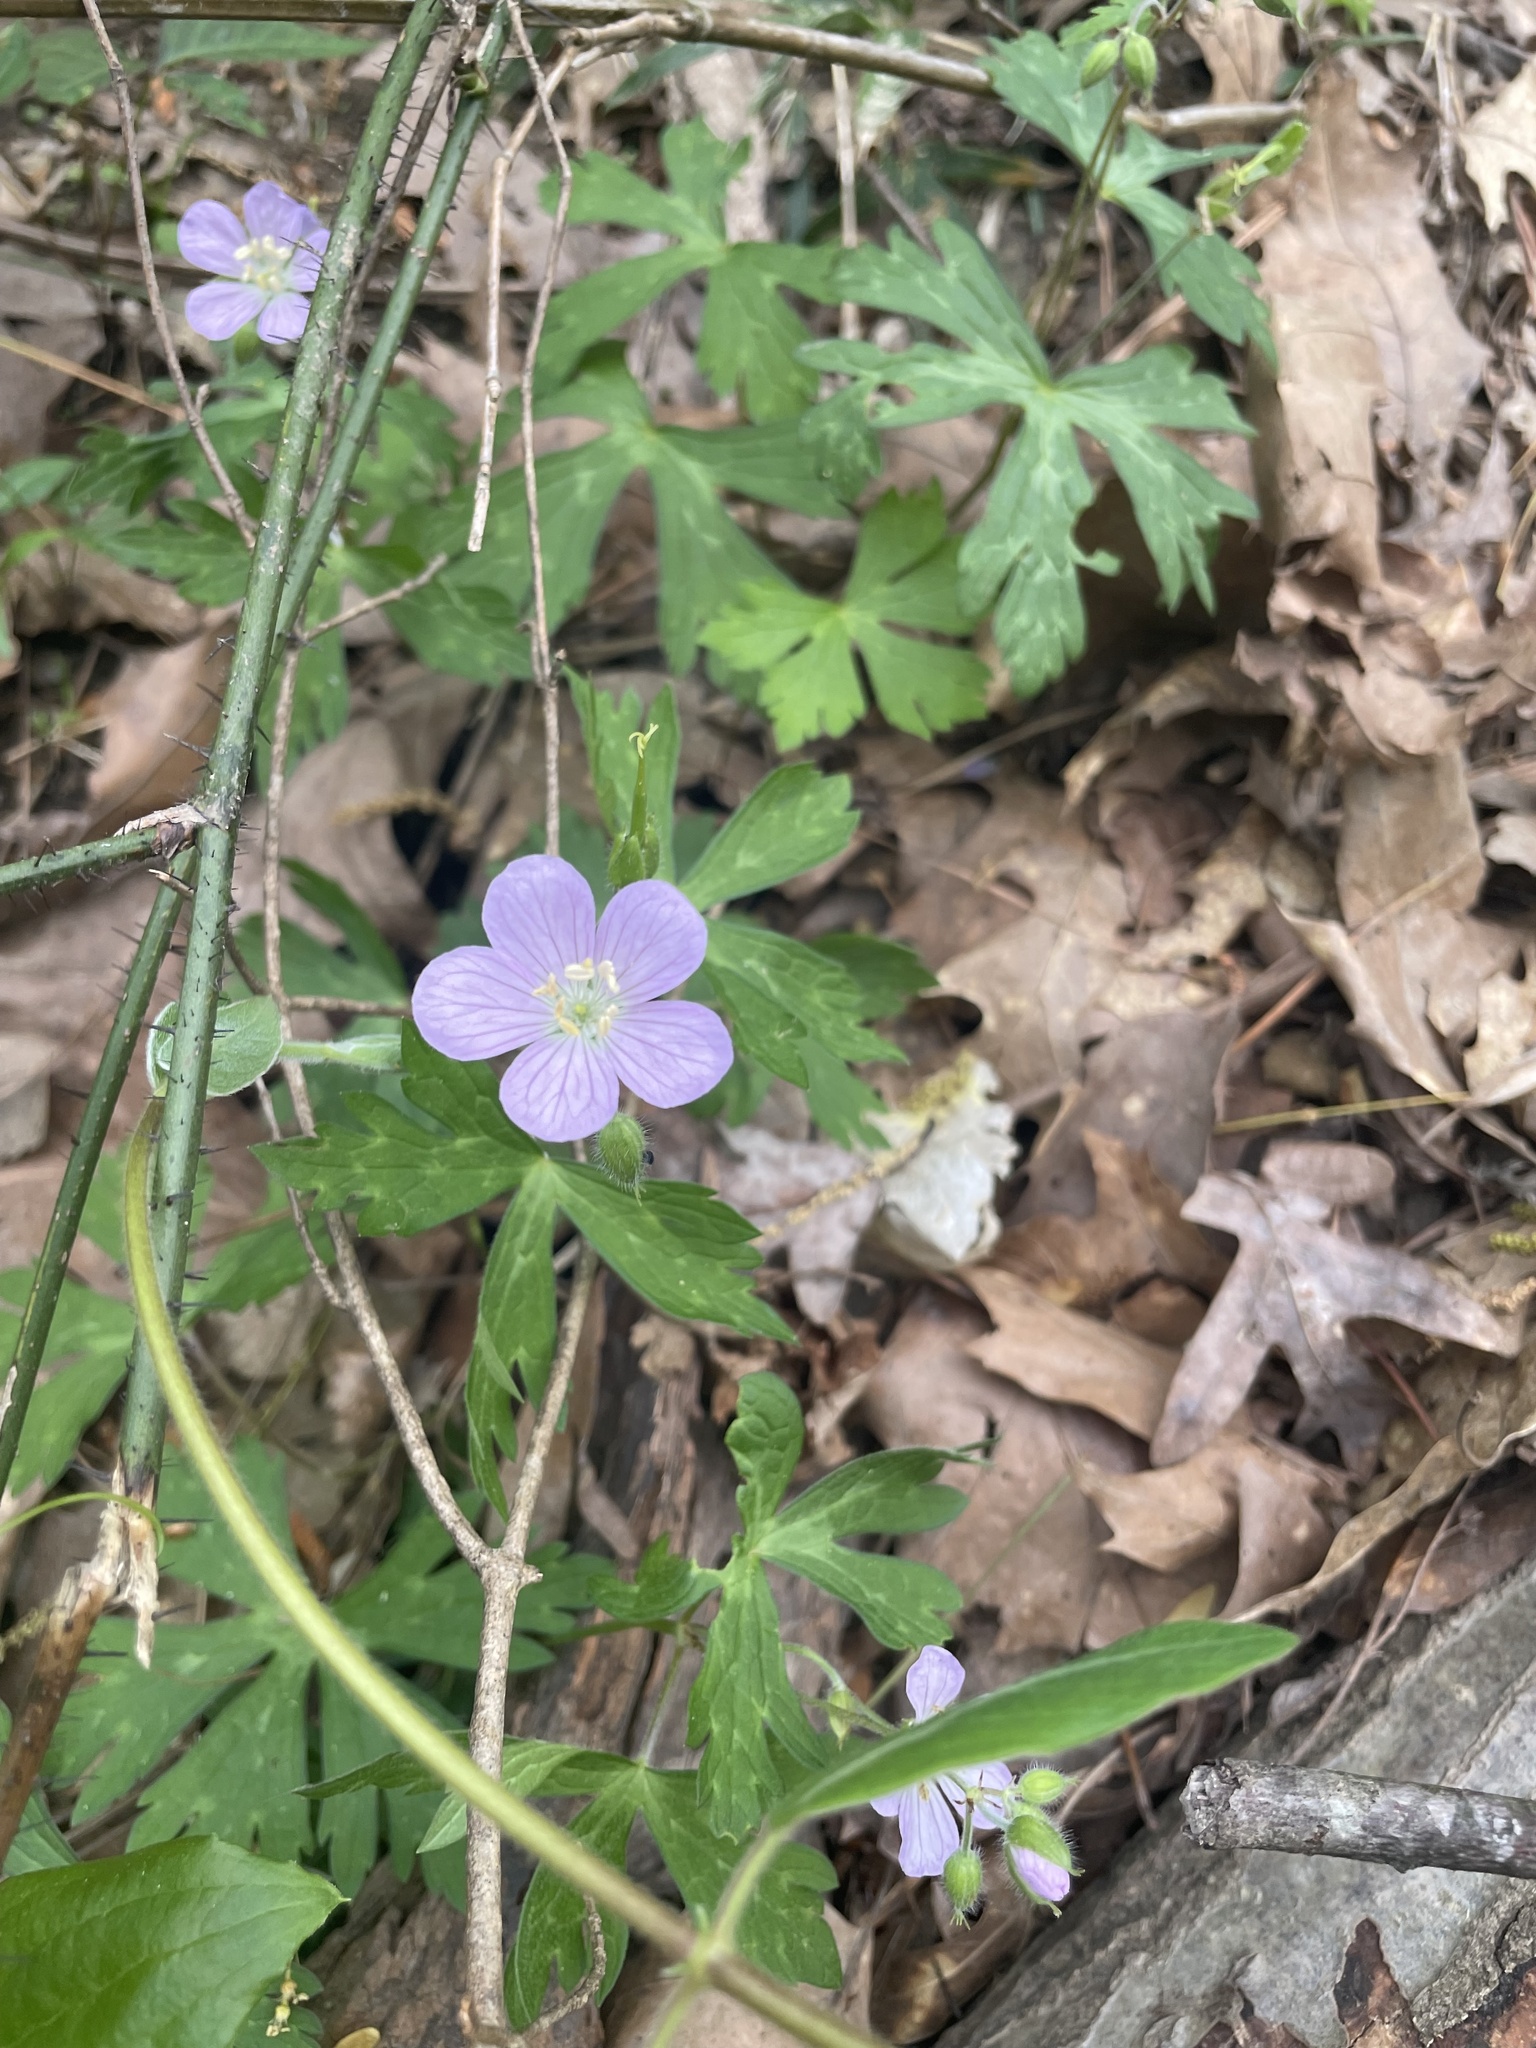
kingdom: Plantae
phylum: Tracheophyta
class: Magnoliopsida
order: Geraniales
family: Geraniaceae
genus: Geranium
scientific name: Geranium maculatum
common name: Spotted geranium
